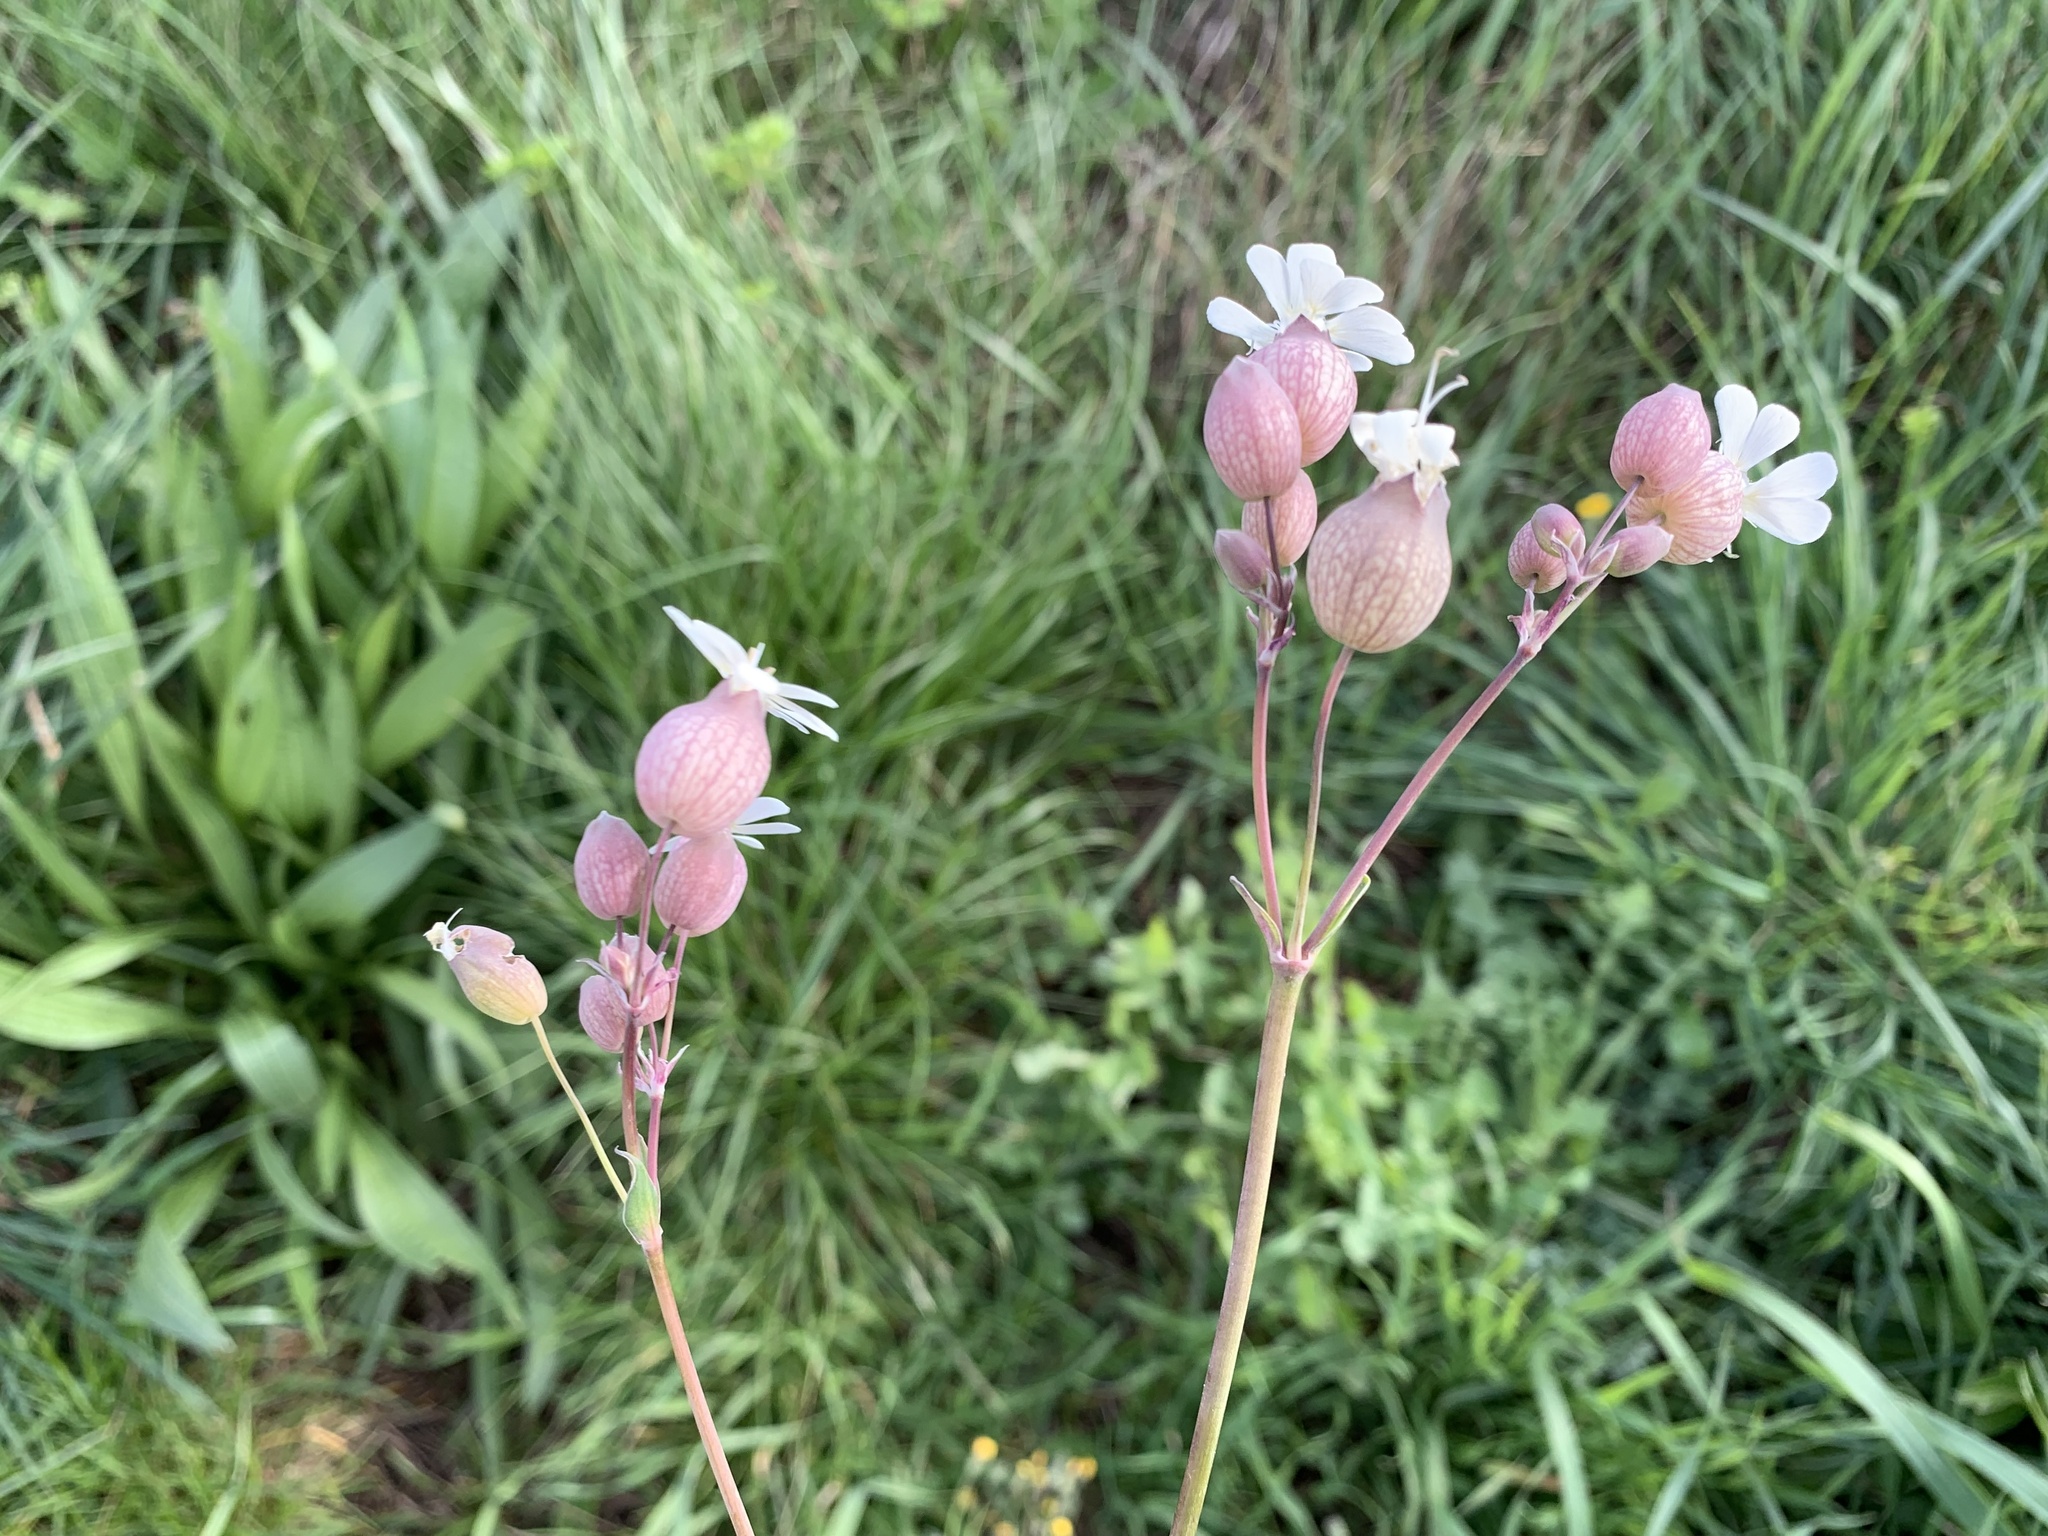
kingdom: Plantae
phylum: Tracheophyta
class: Magnoliopsida
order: Caryophyllales
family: Caryophyllaceae
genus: Silene
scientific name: Silene vulgaris
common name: Bladder campion
